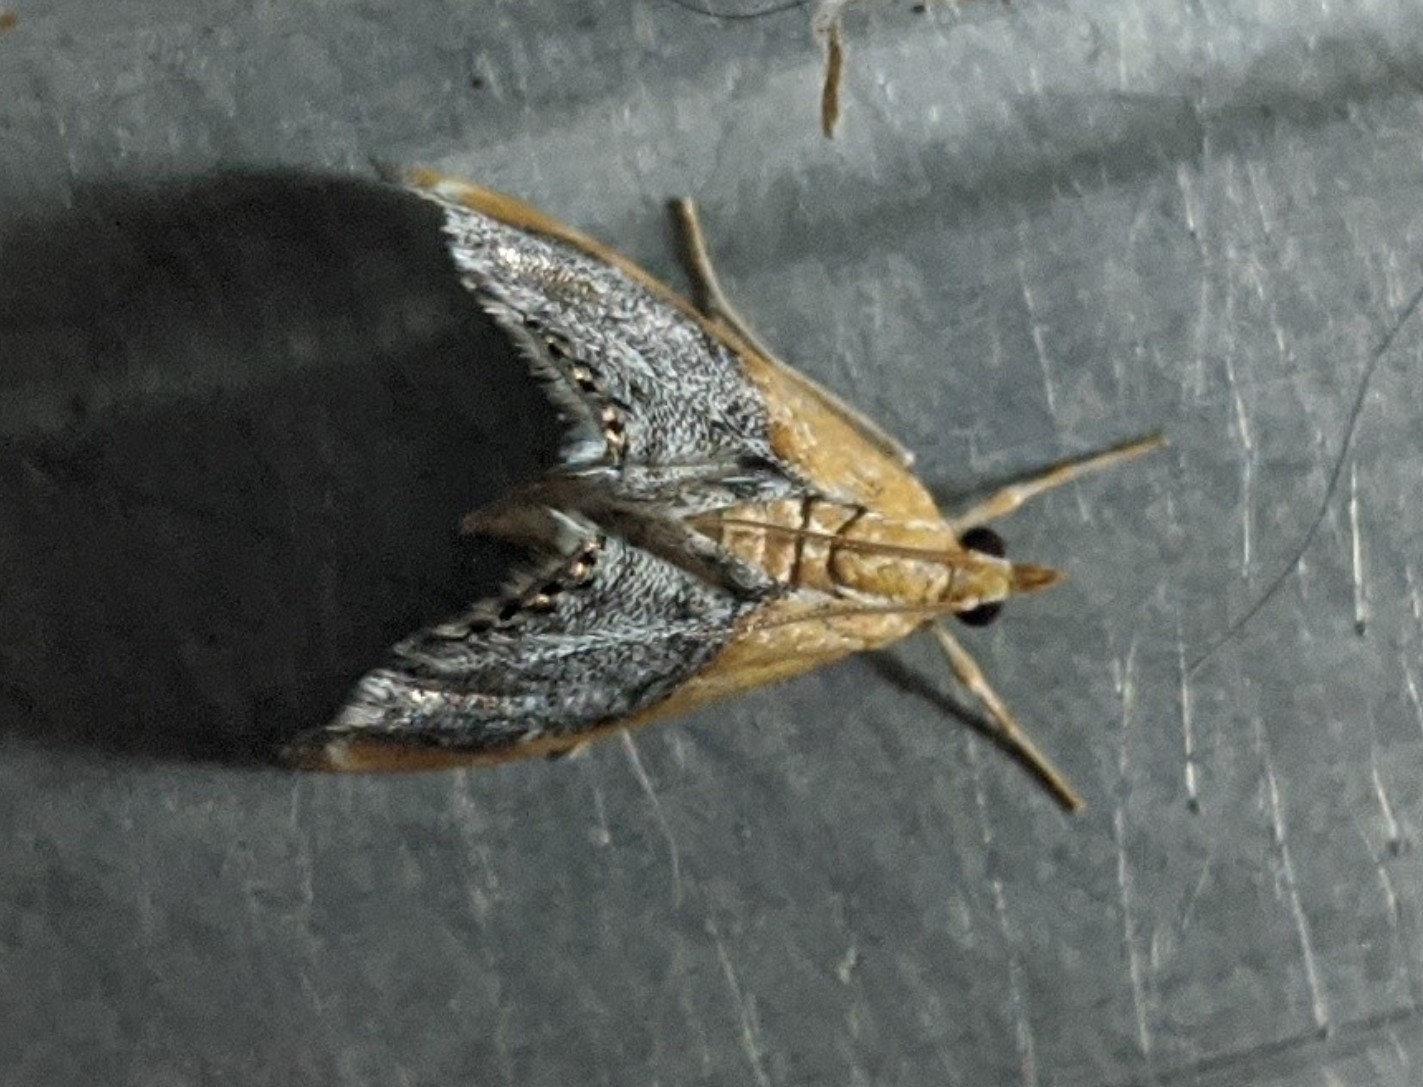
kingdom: Animalia
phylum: Arthropoda
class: Insecta
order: Lepidoptera
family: Crambidae
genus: Chalcoela
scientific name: Chalcoela iphitalis
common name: Sooty-winged chalcoela moth
